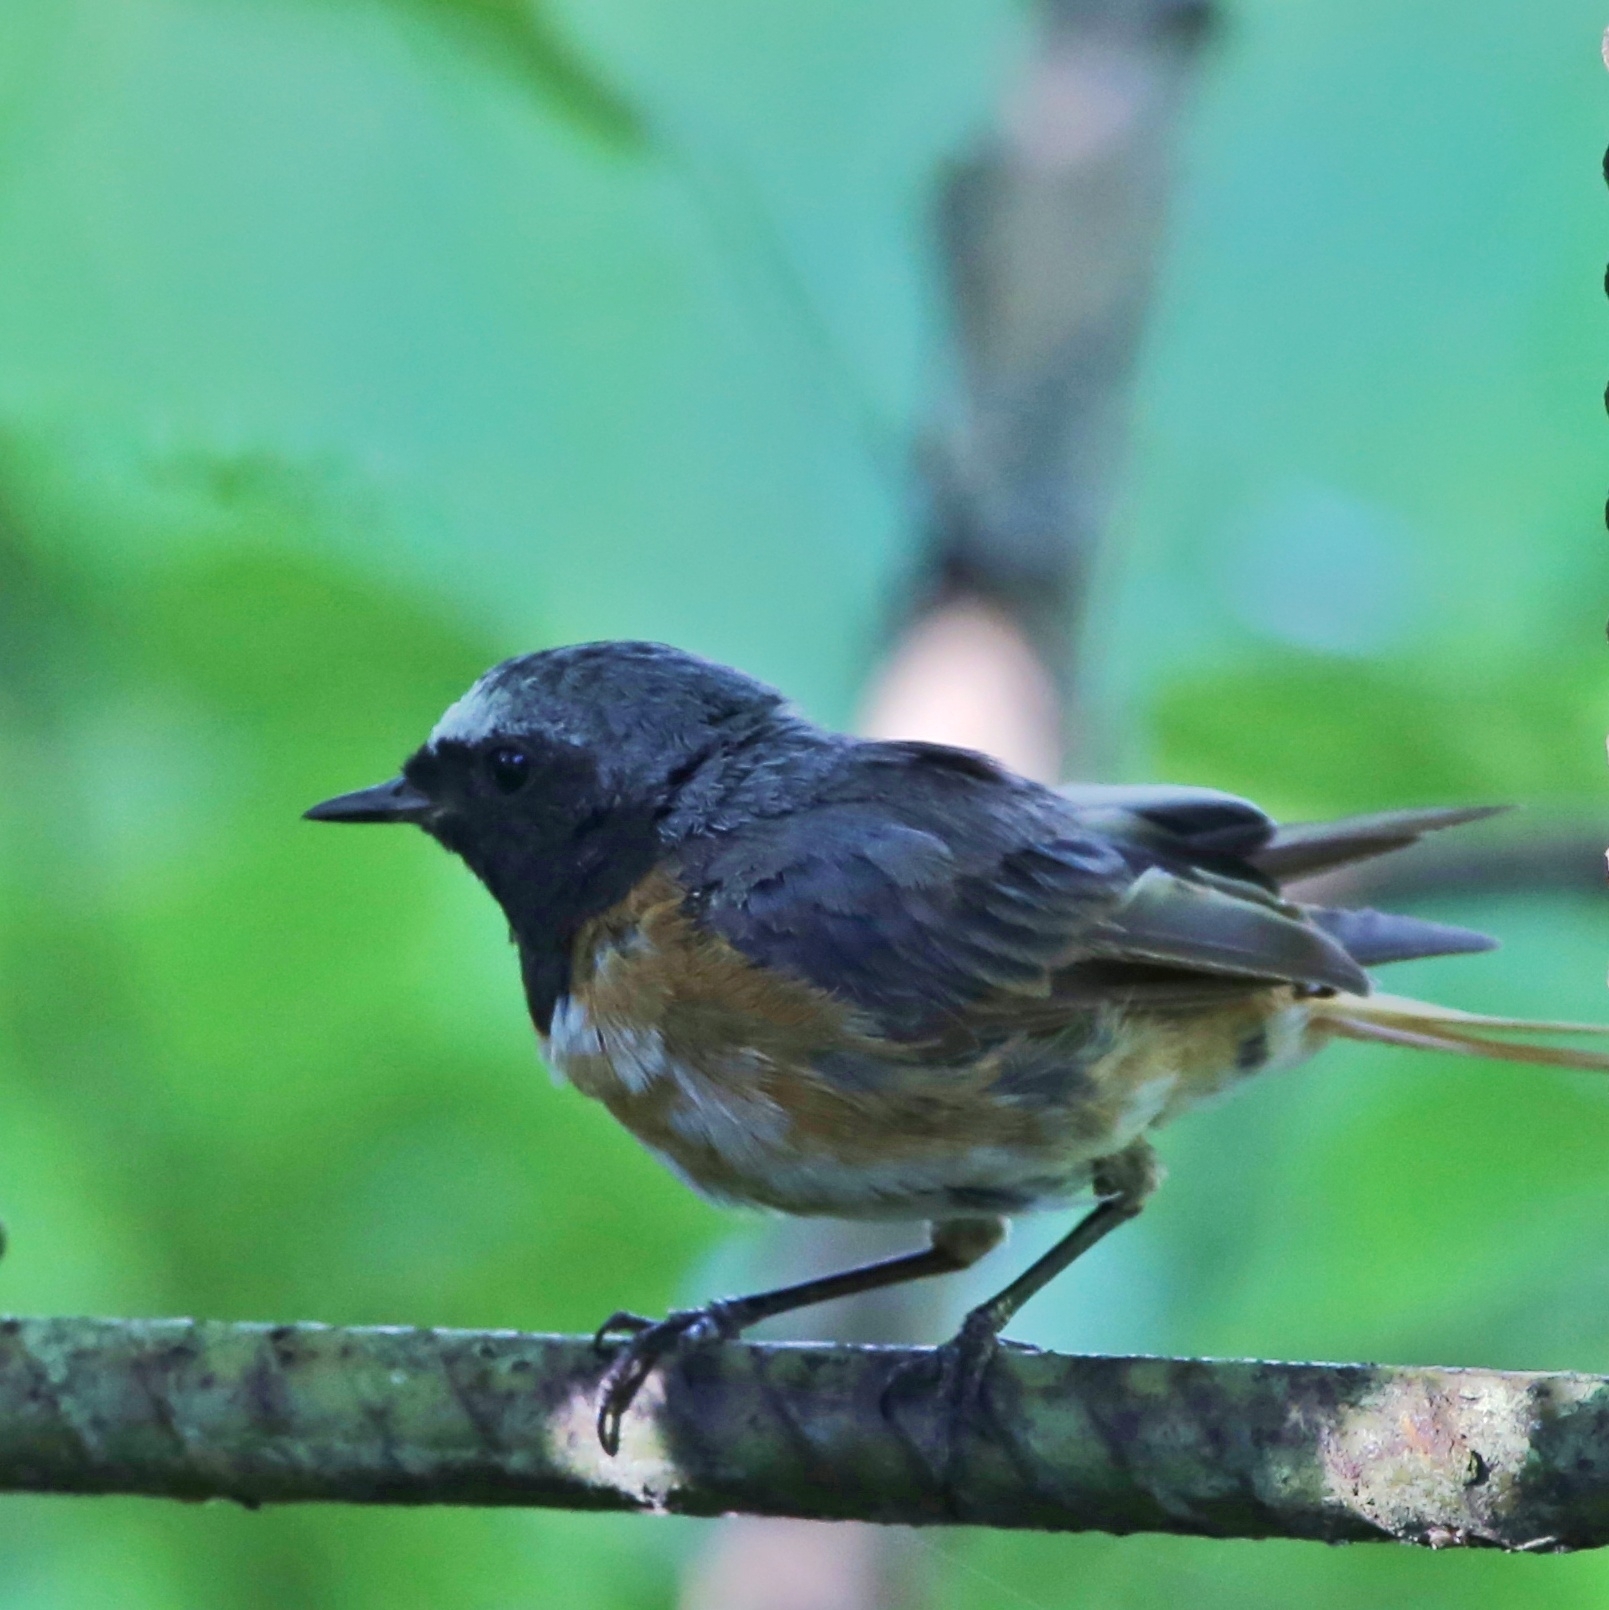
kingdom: Animalia
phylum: Chordata
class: Aves
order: Passeriformes
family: Muscicapidae
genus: Phoenicurus
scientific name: Phoenicurus phoenicurus
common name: Common redstart
